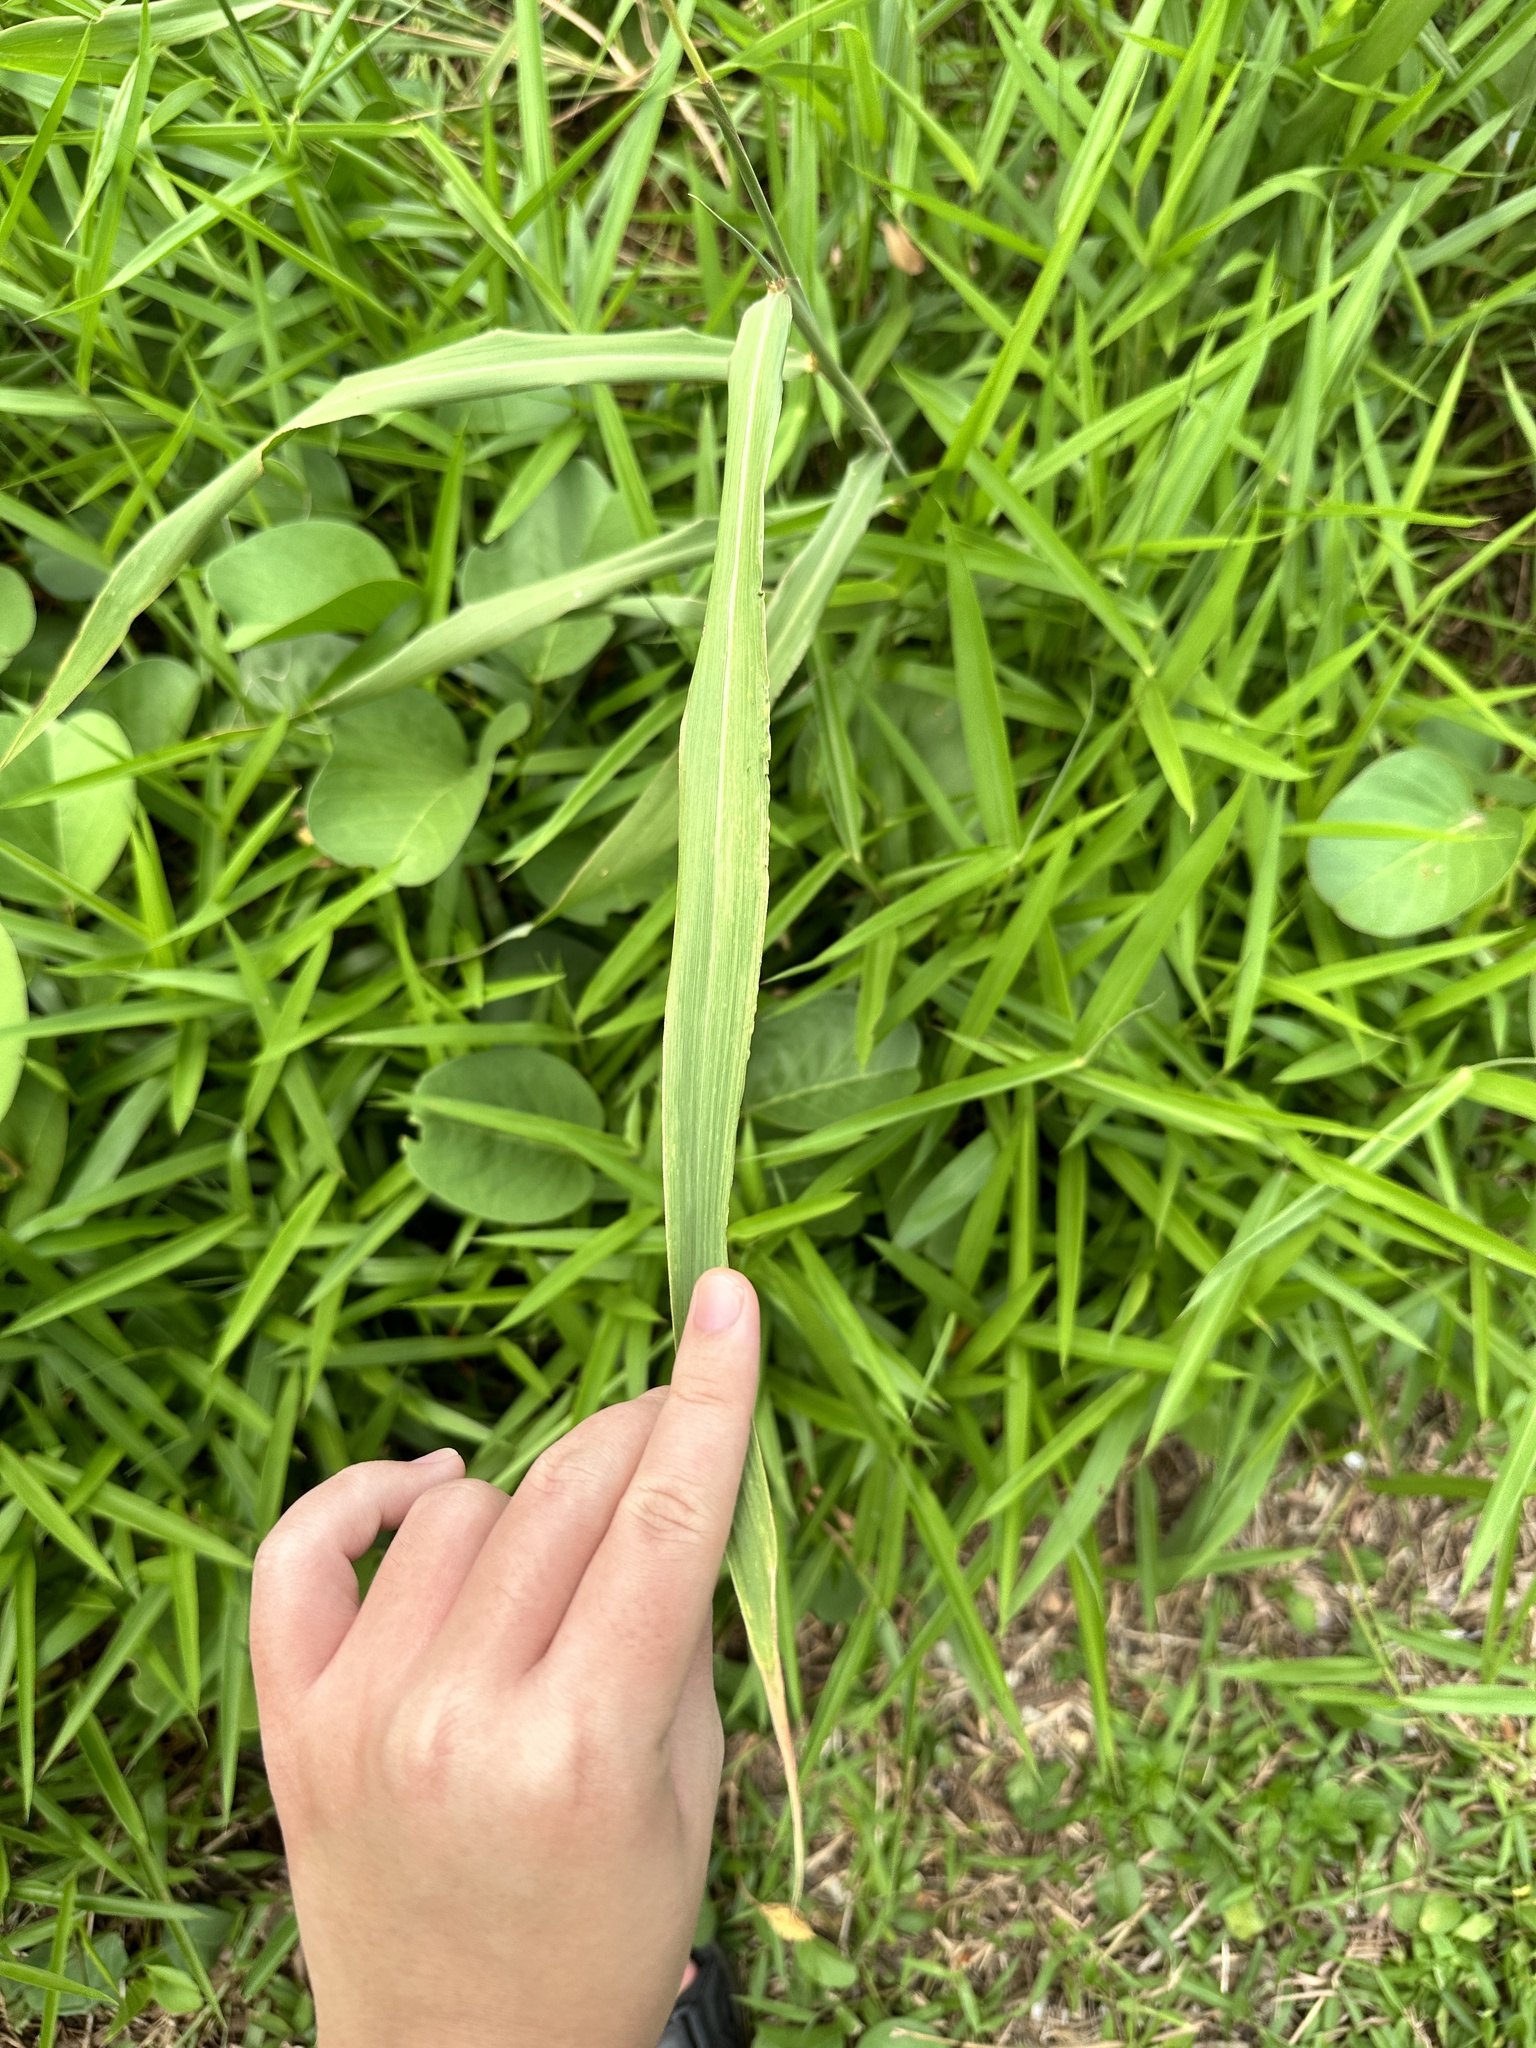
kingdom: Plantae
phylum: Tracheophyta
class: Liliopsida
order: Poales
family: Poaceae
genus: Ischaemum
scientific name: Ischaemum barbatum
